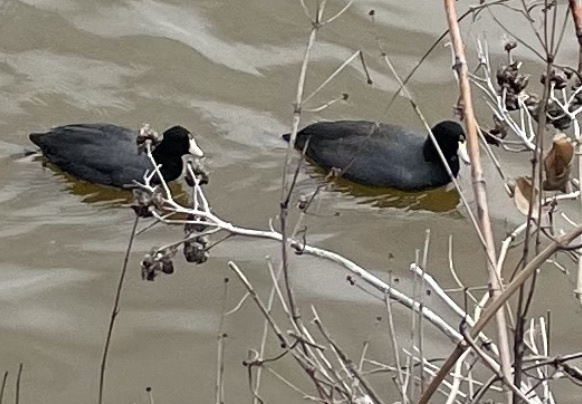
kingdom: Animalia
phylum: Chordata
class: Aves
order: Gruiformes
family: Rallidae
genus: Fulica
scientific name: Fulica americana
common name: American coot
